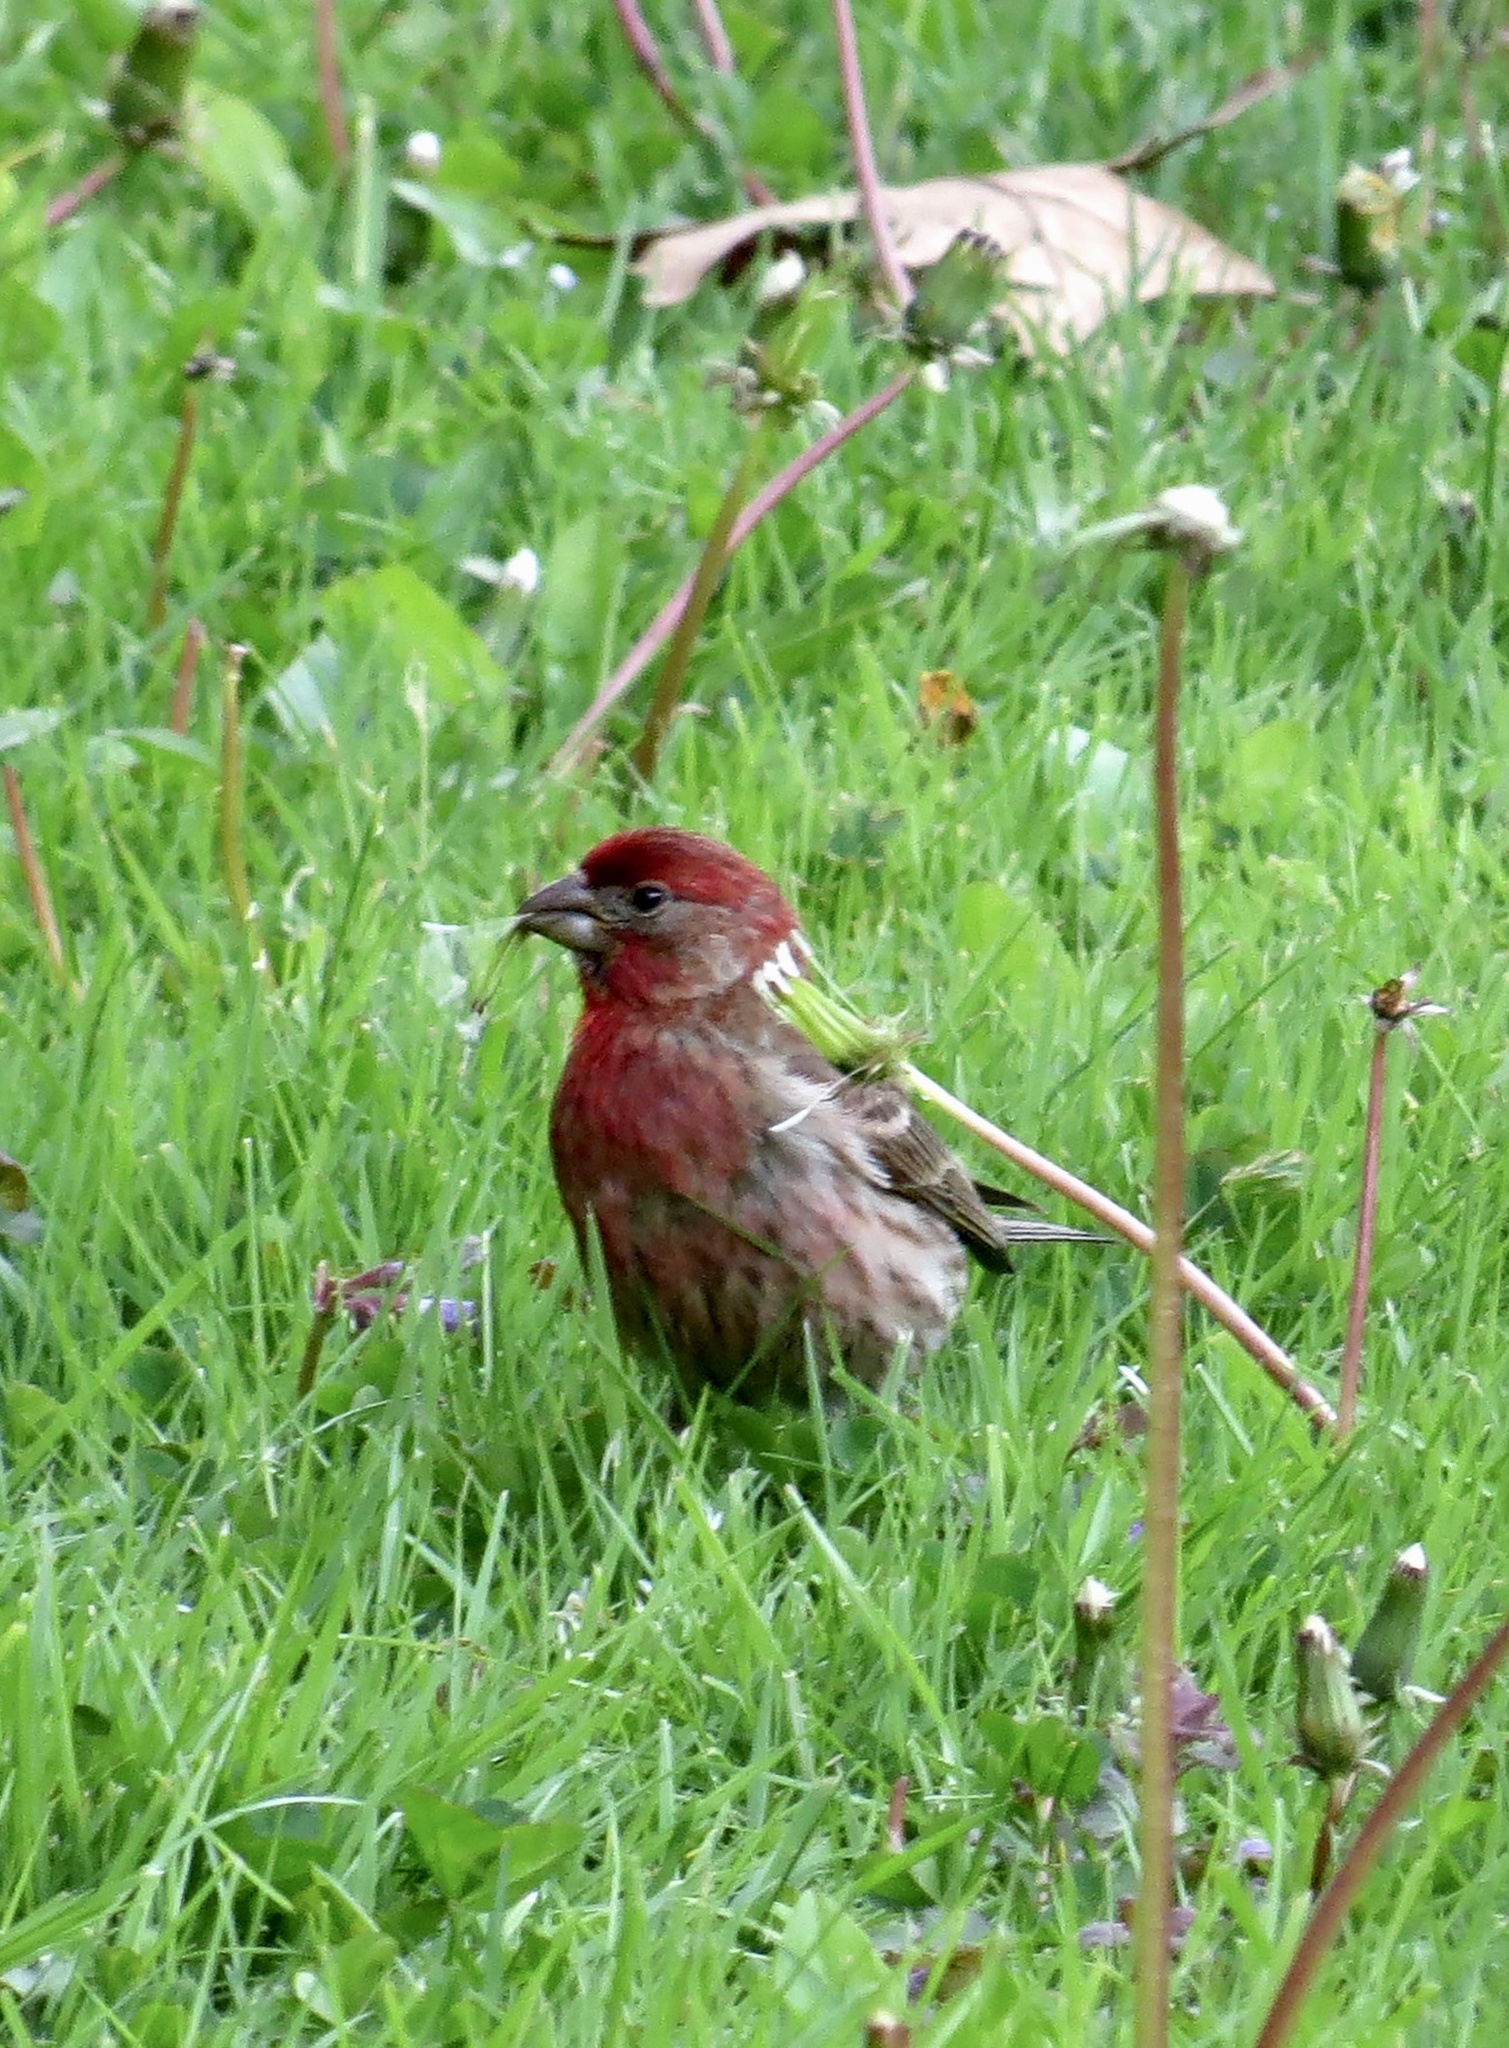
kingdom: Animalia
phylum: Chordata
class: Aves
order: Passeriformes
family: Fringillidae
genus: Haemorhous
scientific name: Haemorhous mexicanus
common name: House finch
